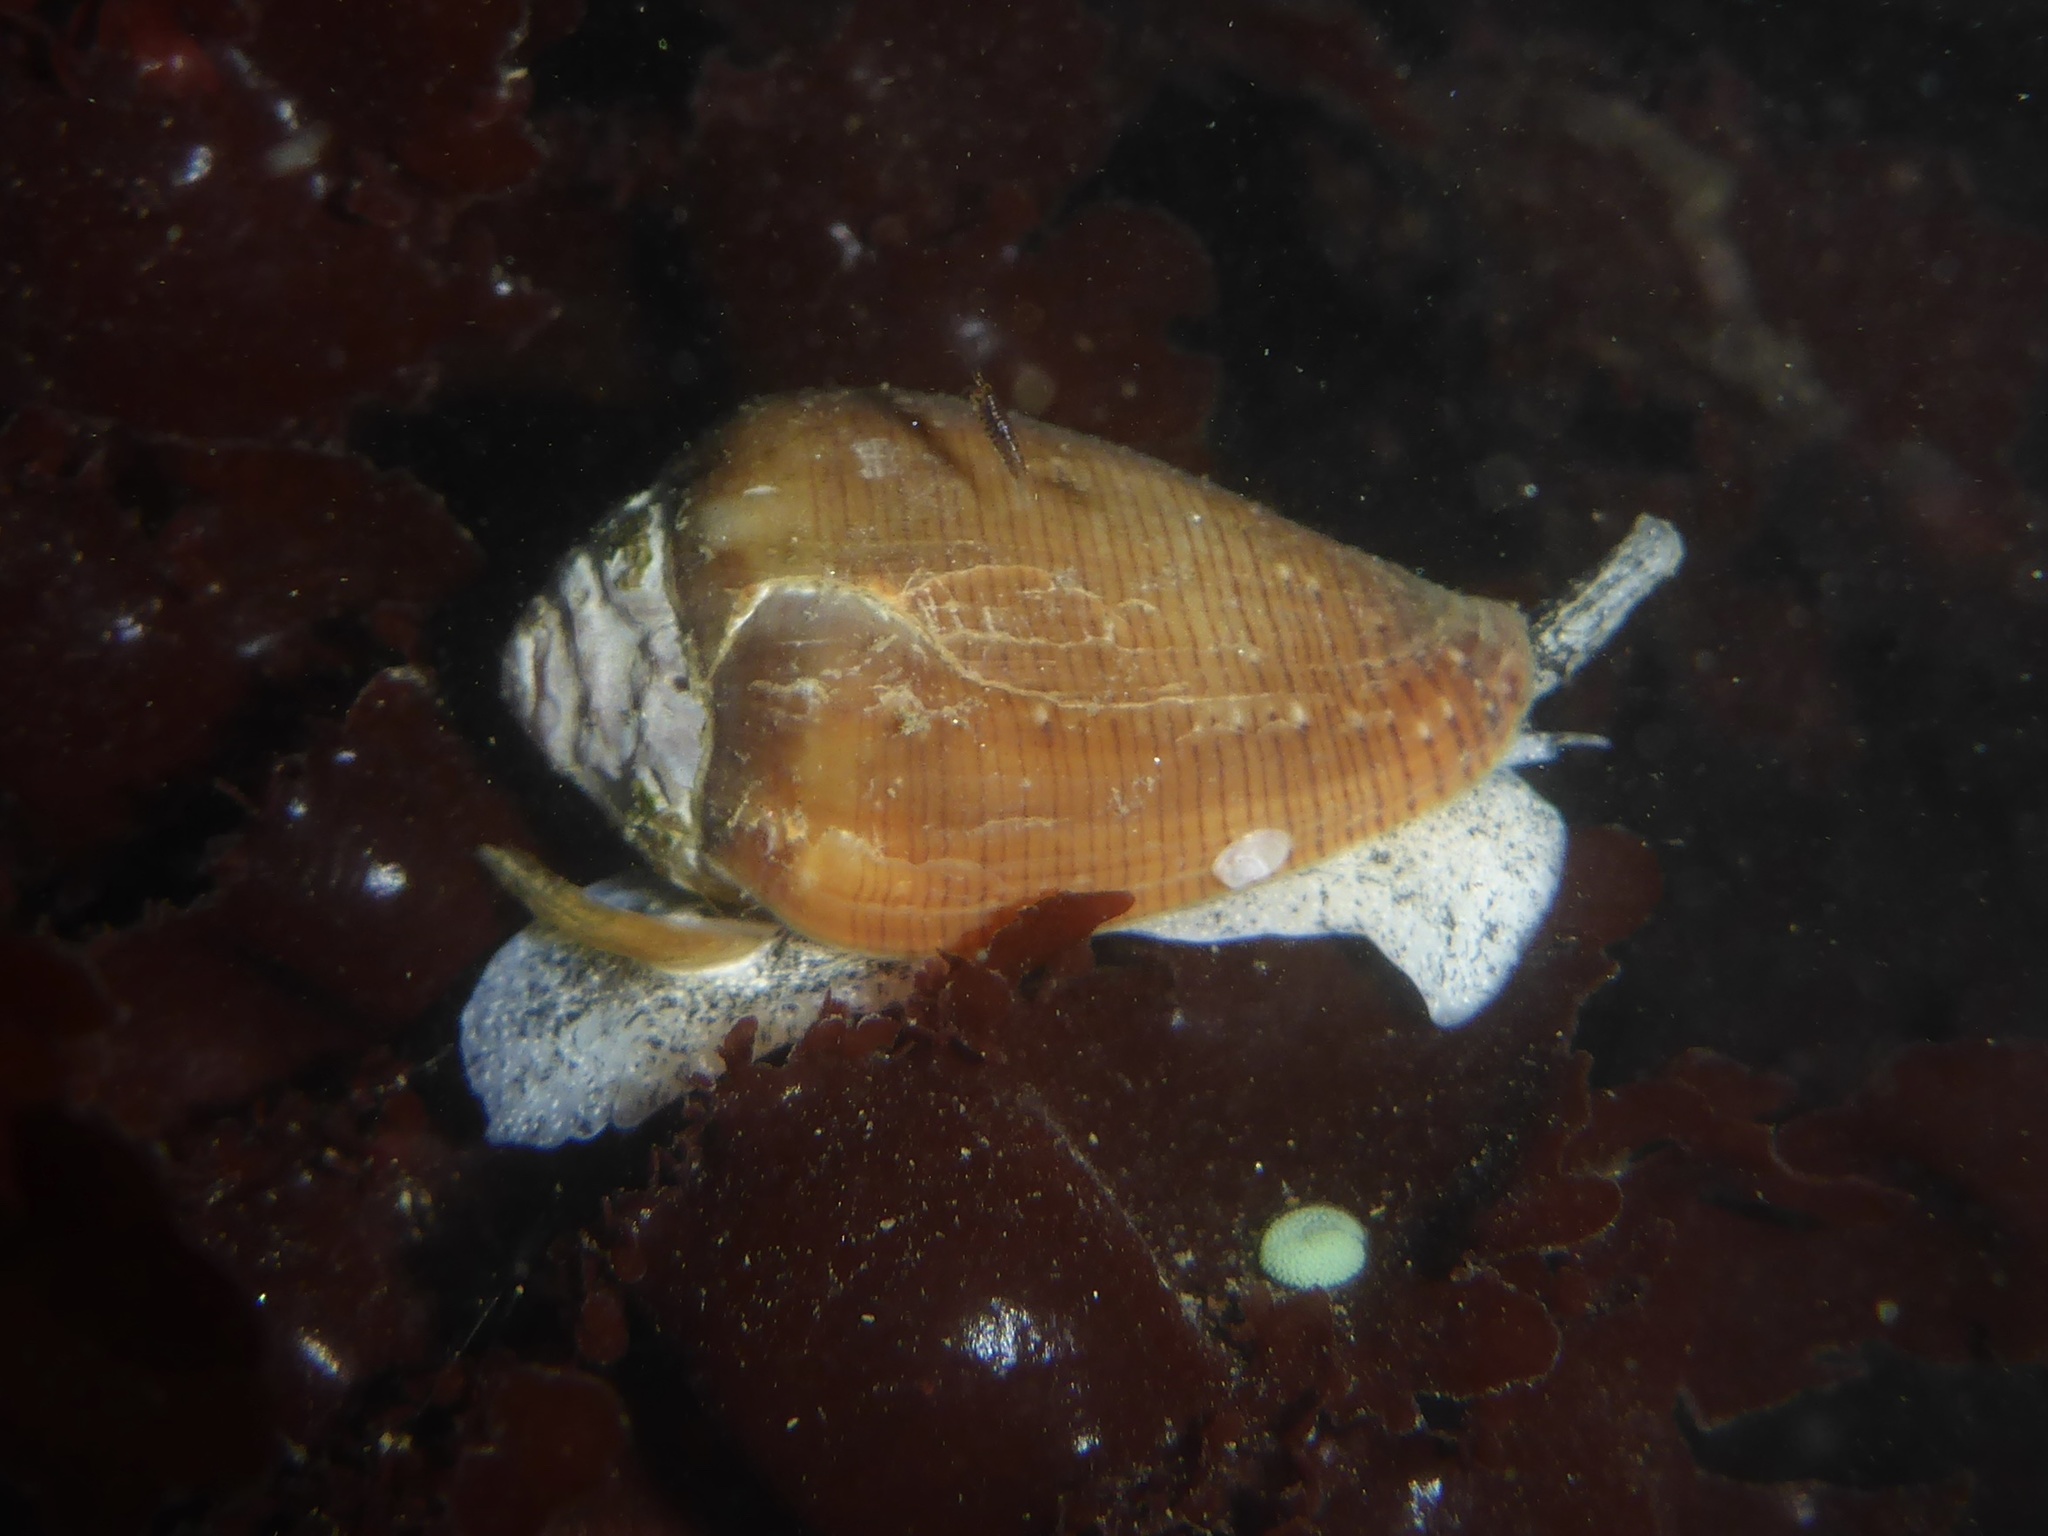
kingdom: Animalia
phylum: Mollusca
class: Gastropoda
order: Neogastropoda
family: Conidae
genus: Californiconus
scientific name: Californiconus californicus
